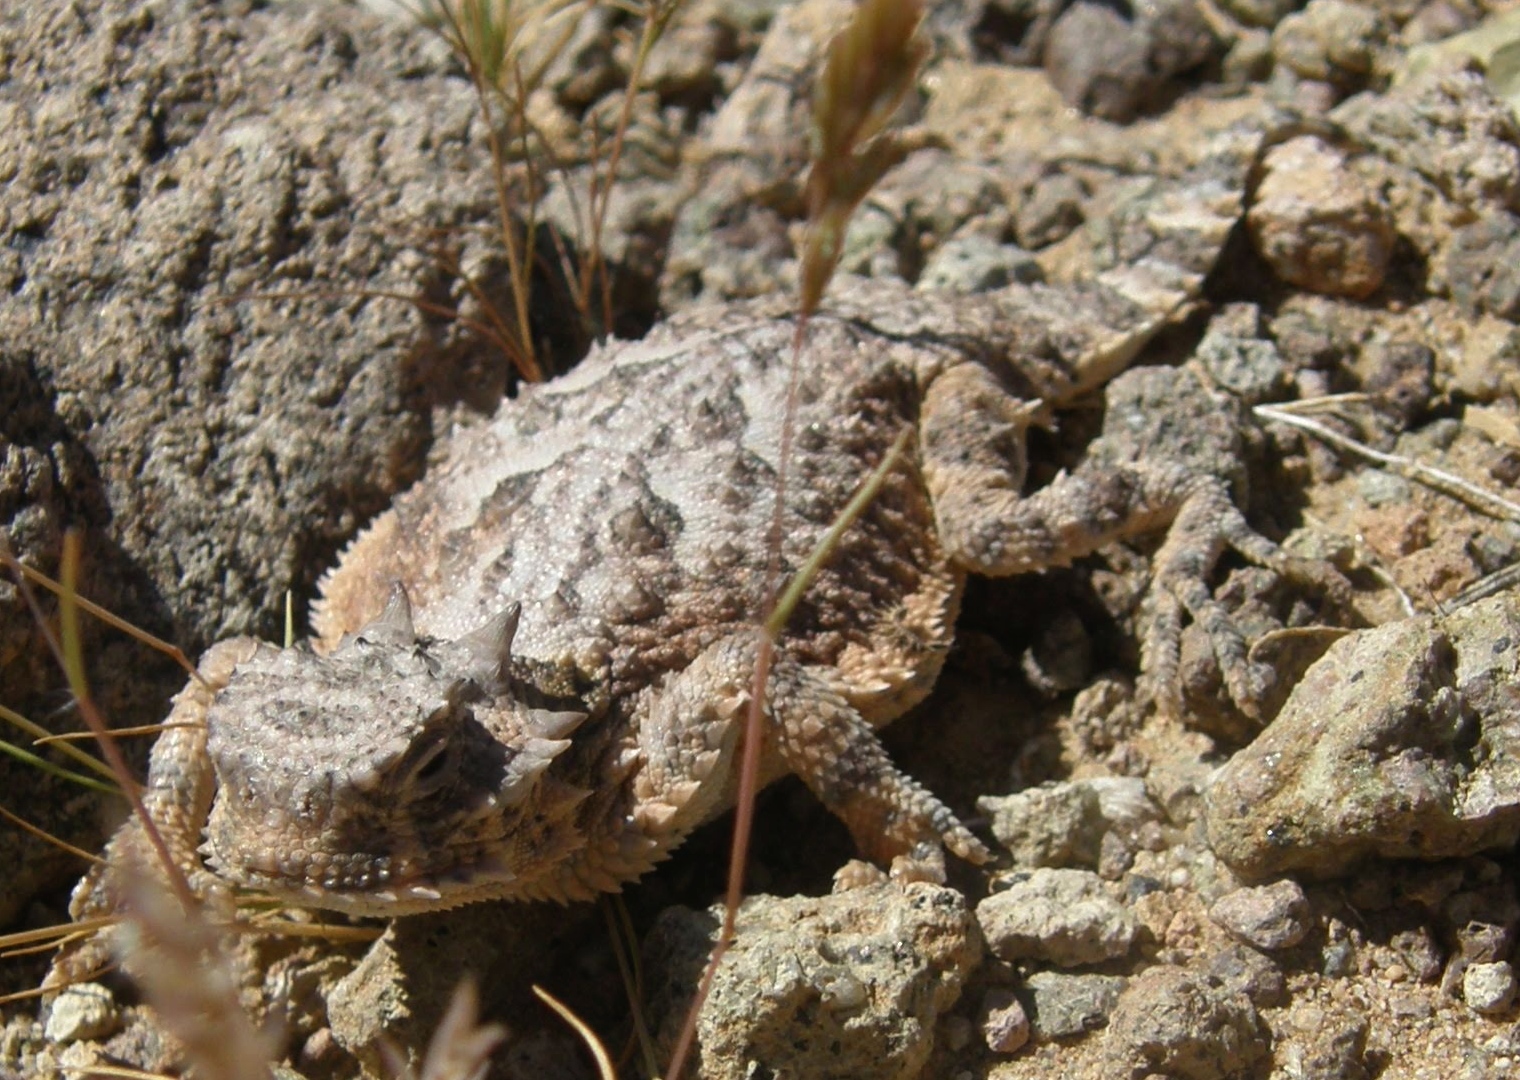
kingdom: Animalia
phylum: Chordata
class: Squamata
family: Phrynosomatidae
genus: Phrynosoma
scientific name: Phrynosoma platyrhinos
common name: Desert horned lizard
